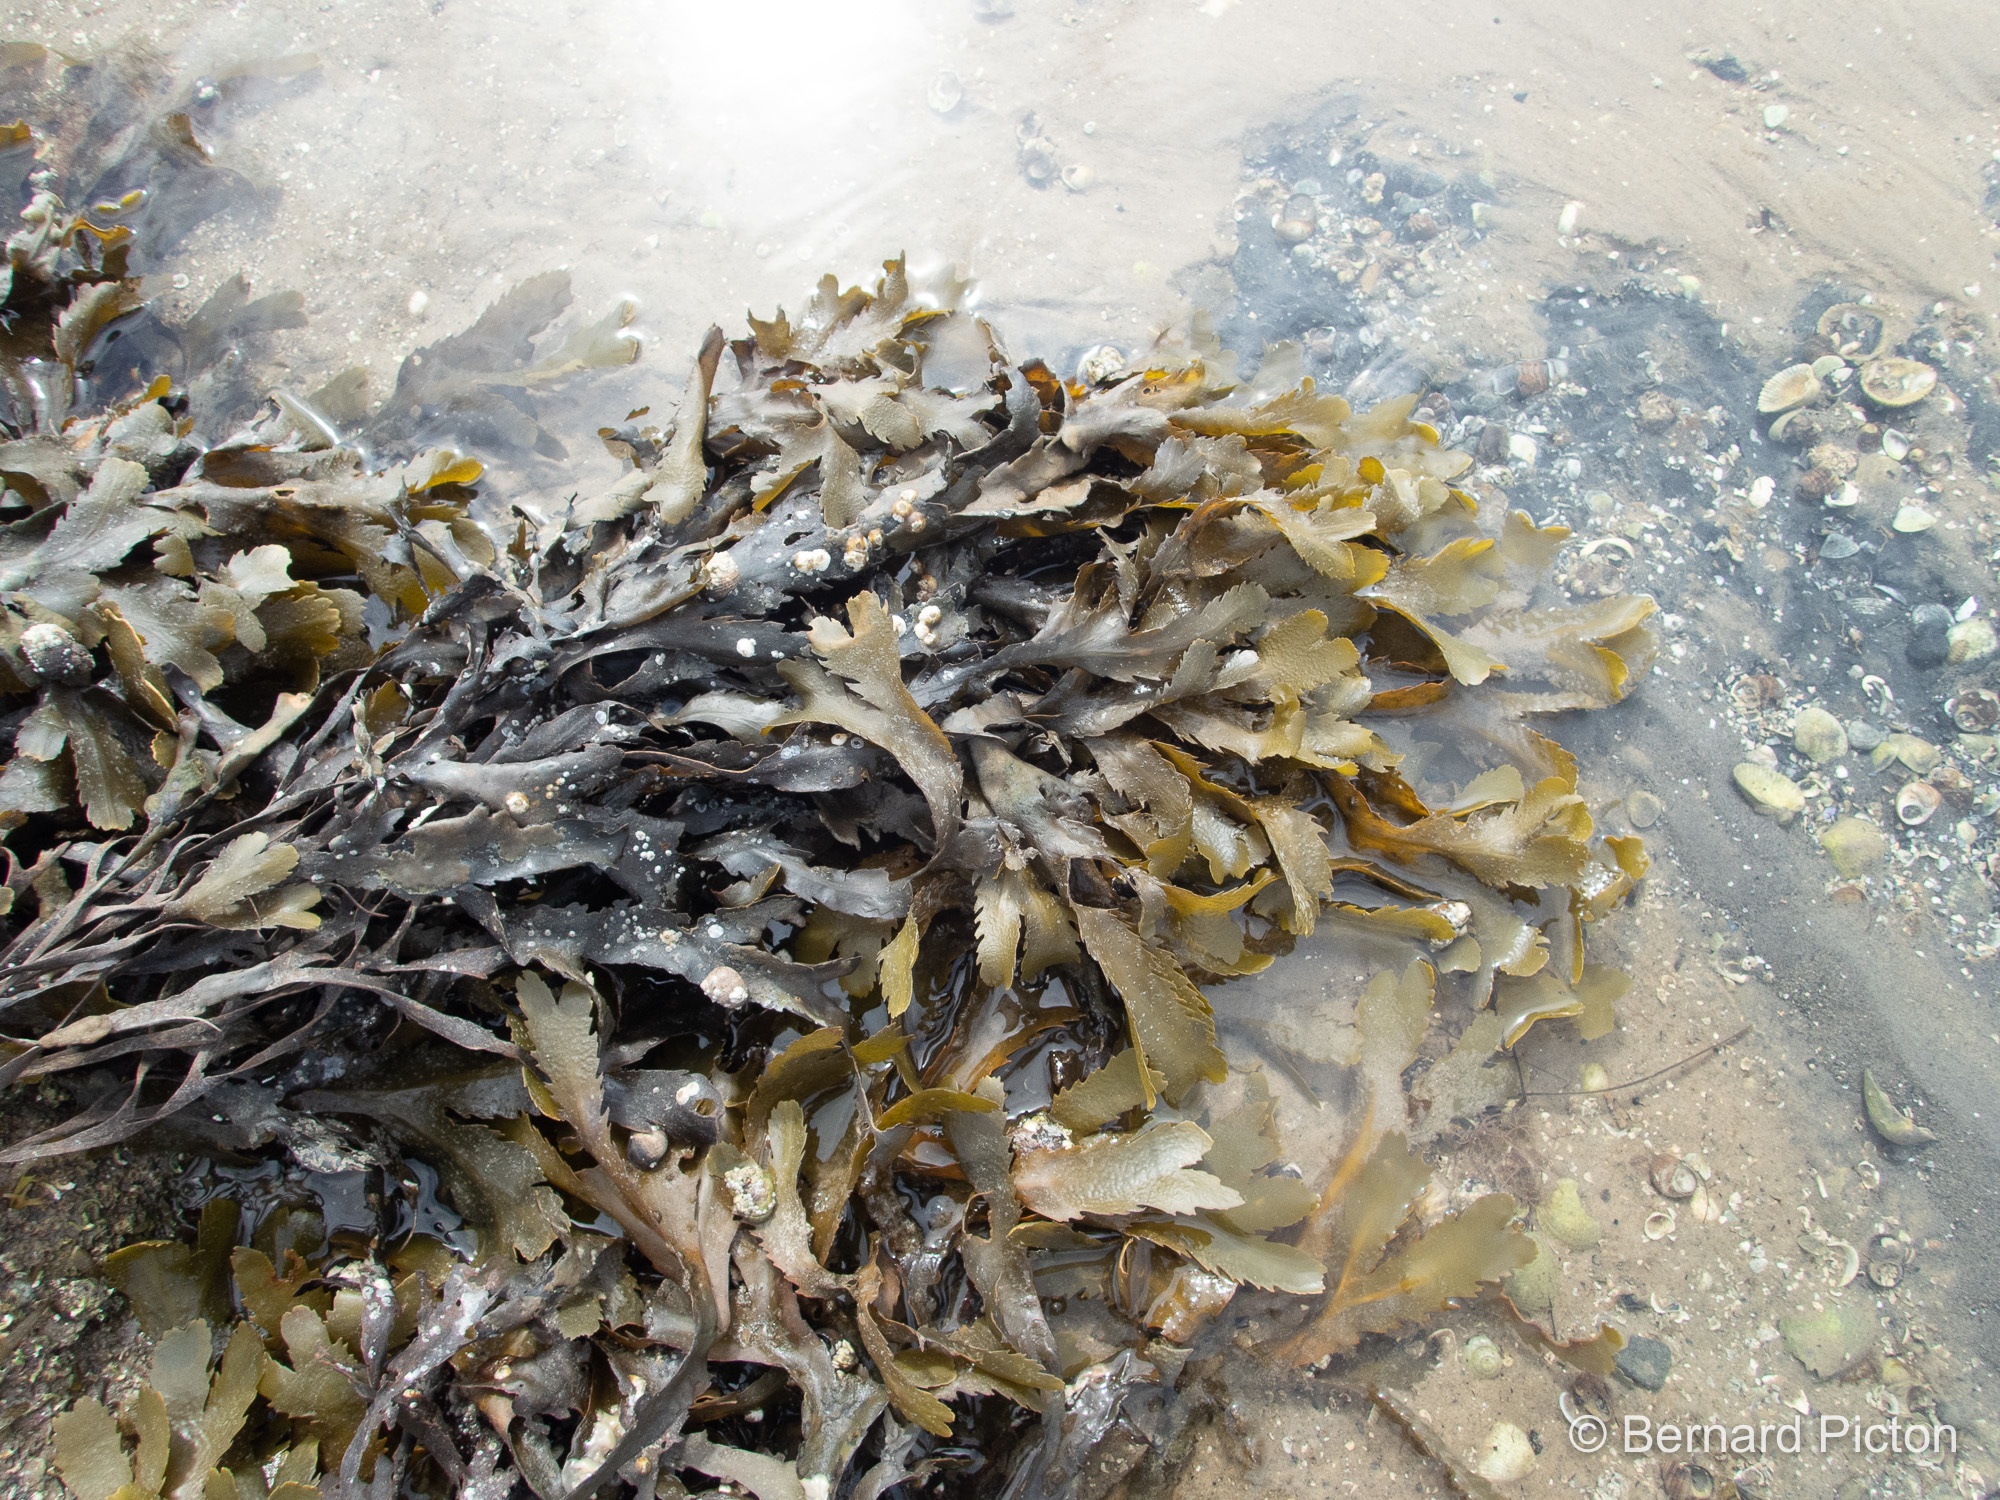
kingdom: Chromista
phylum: Ochrophyta
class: Phaeophyceae
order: Fucales
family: Fucaceae
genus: Fucus
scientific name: Fucus serratus
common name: Toothed wrack
